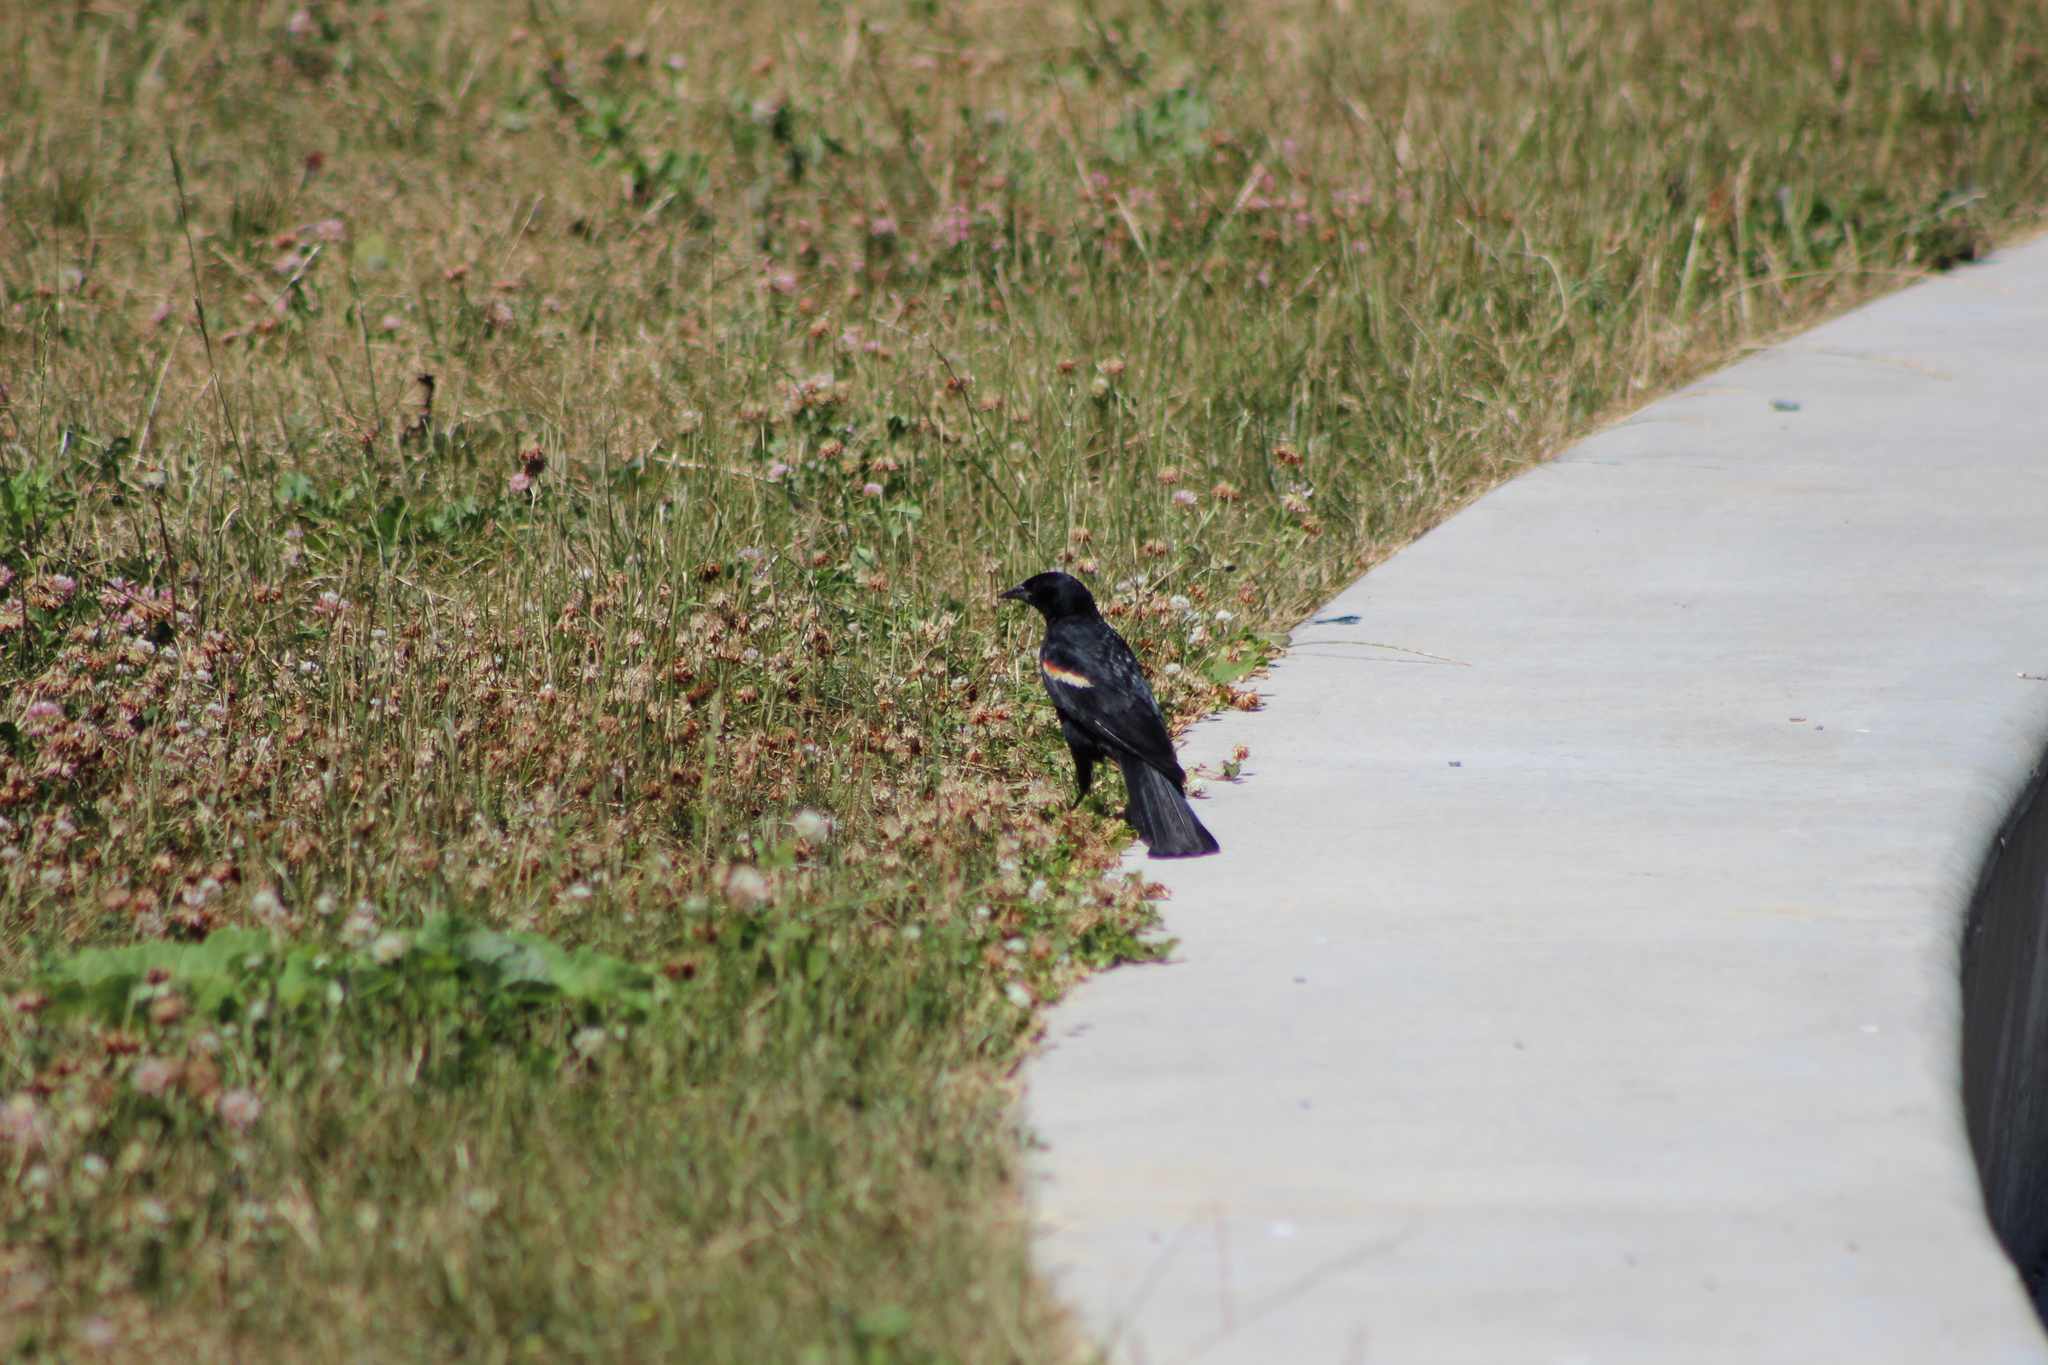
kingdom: Animalia
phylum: Chordata
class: Aves
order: Passeriformes
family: Icteridae
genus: Agelaius
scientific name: Agelaius phoeniceus
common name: Red-winged blackbird
